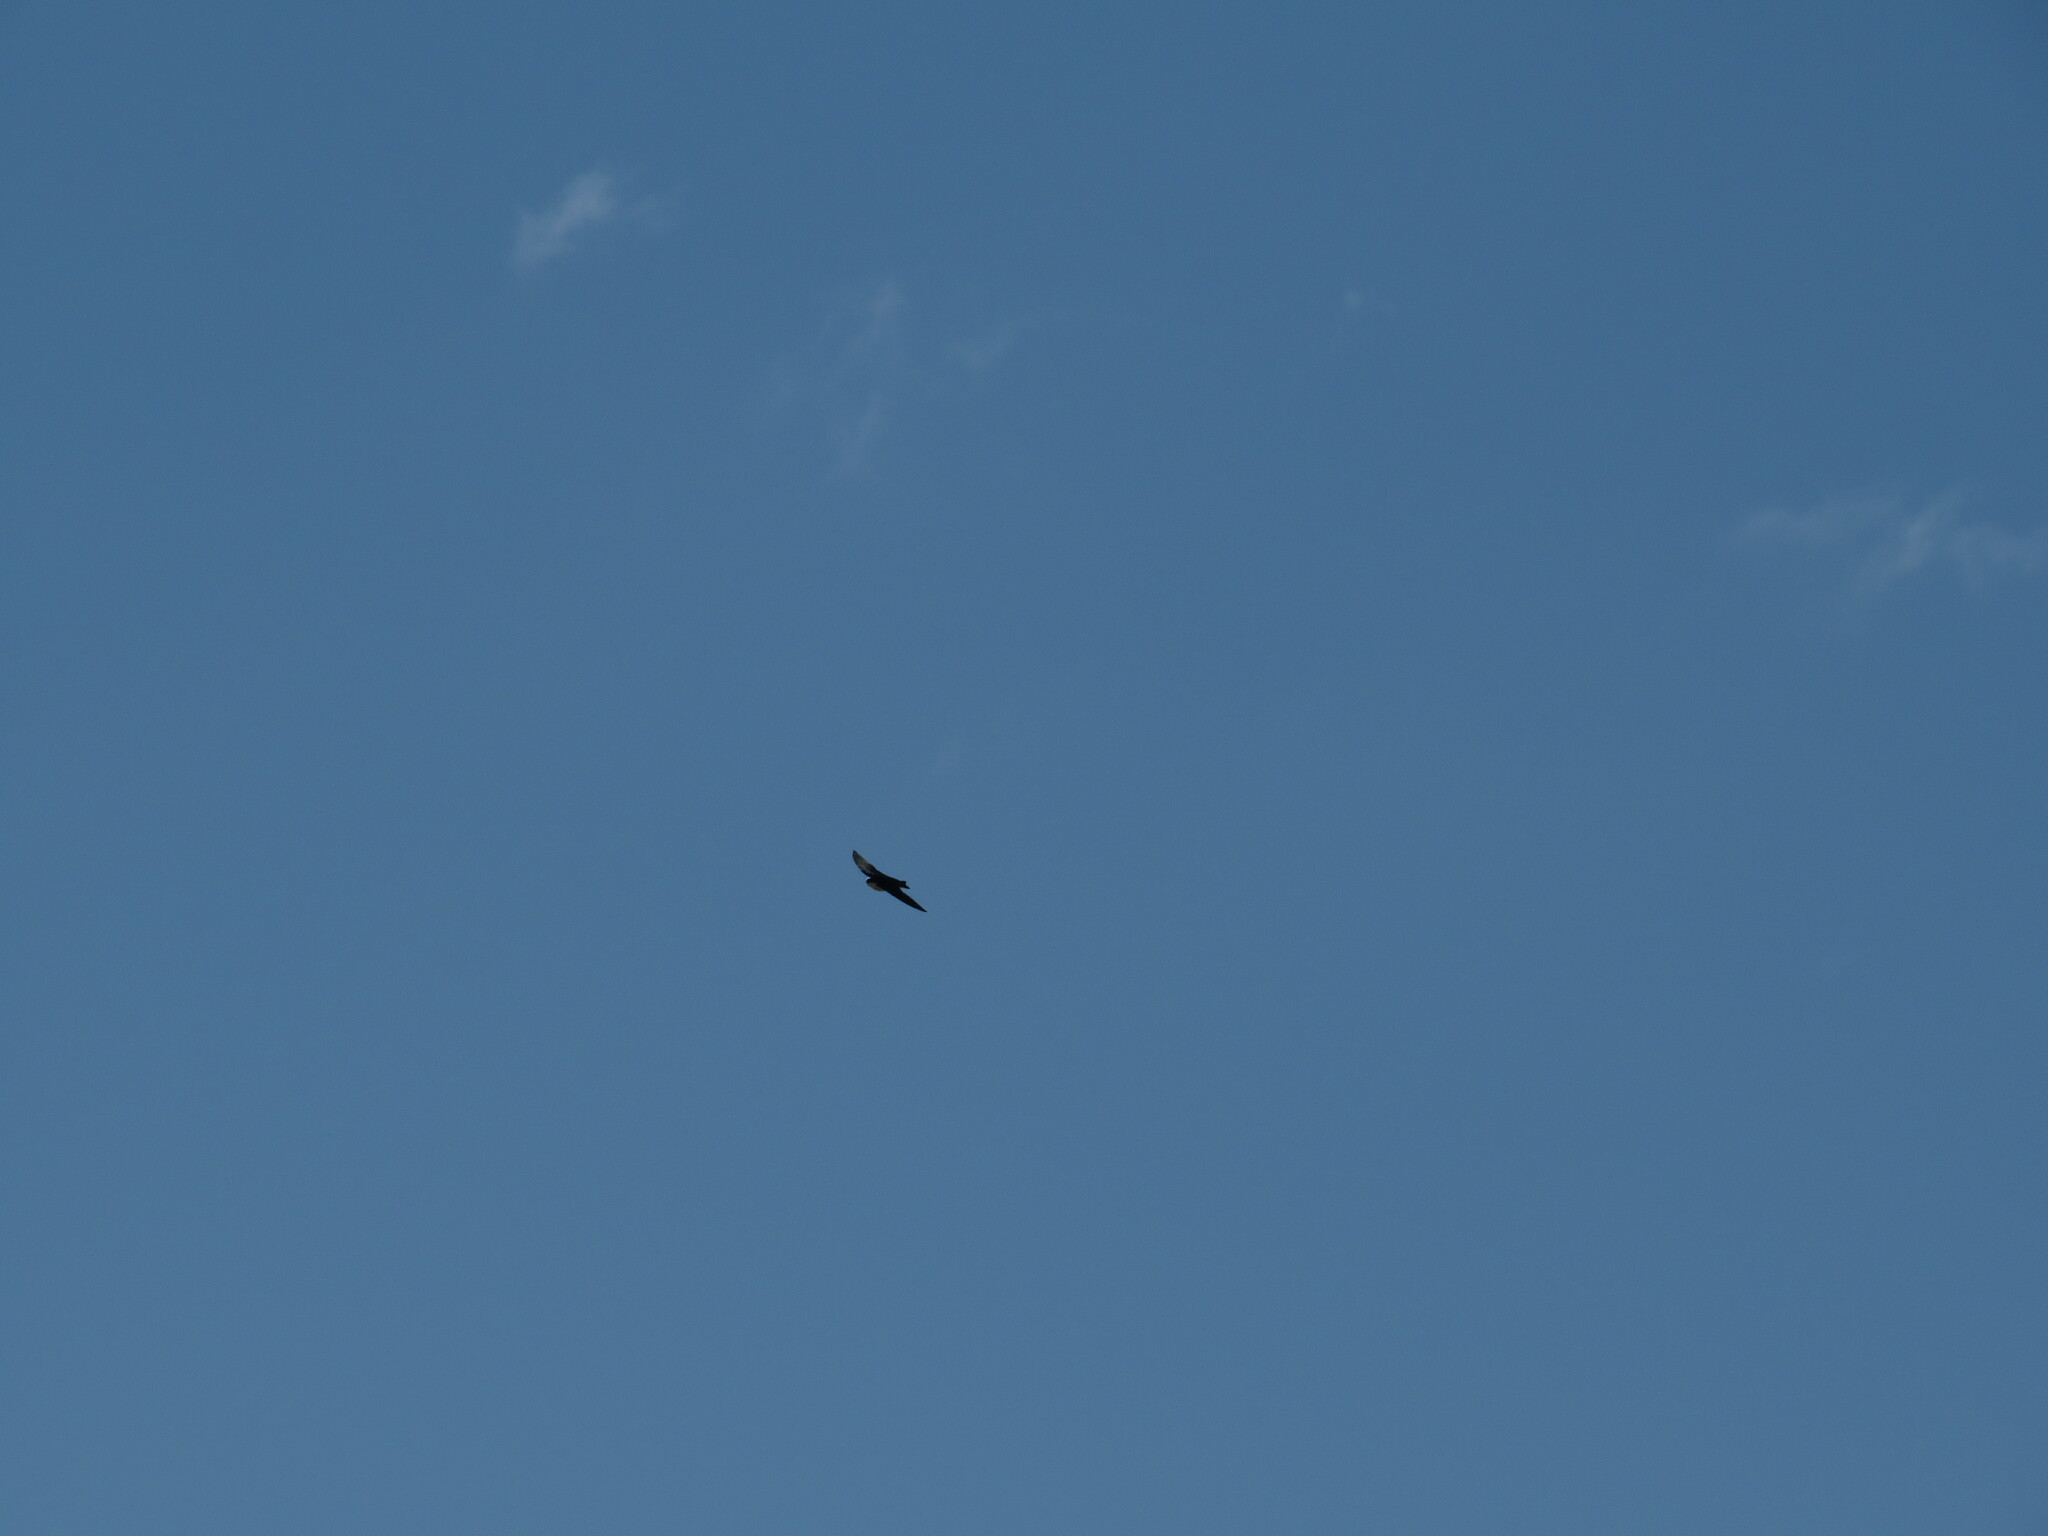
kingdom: Animalia
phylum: Chordata
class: Aves
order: Passeriformes
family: Hirundinidae
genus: Tachycineta
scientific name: Tachycineta bicolor
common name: Tree swallow
